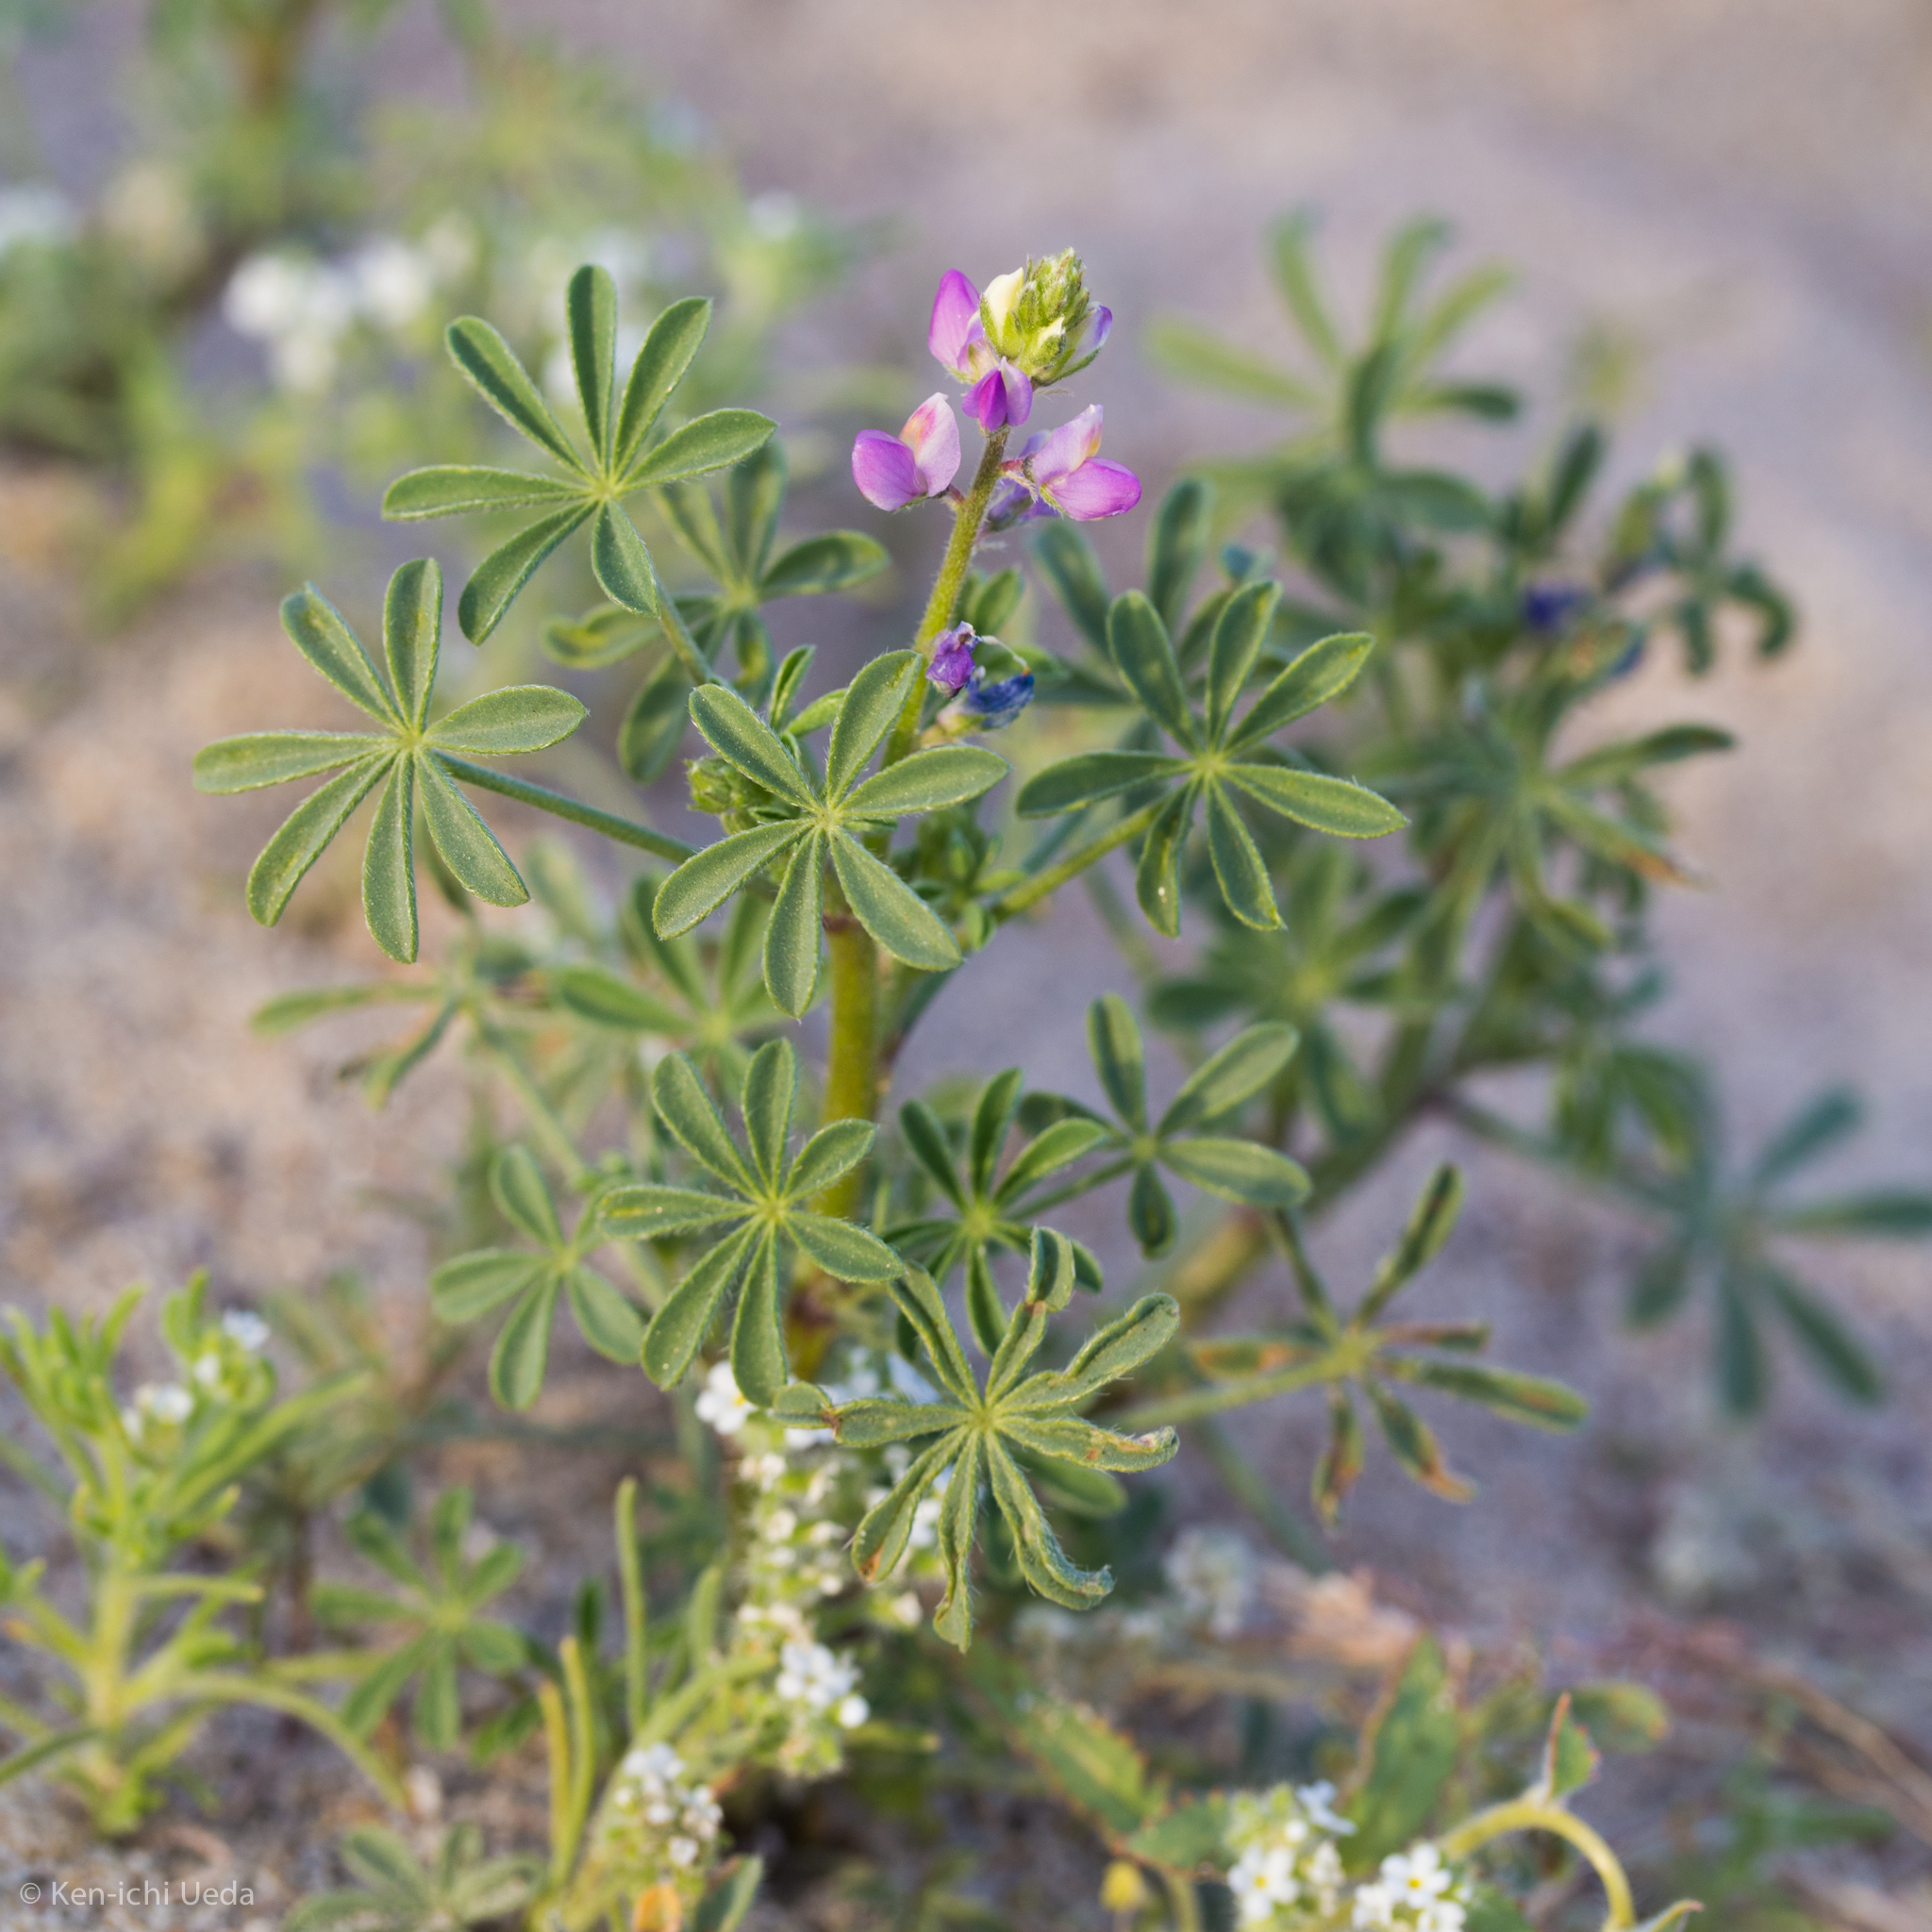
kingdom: Plantae
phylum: Tracheophyta
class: Magnoliopsida
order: Fabales
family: Fabaceae
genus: Lupinus
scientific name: Lupinus arizonicus
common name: Arizona lupine
